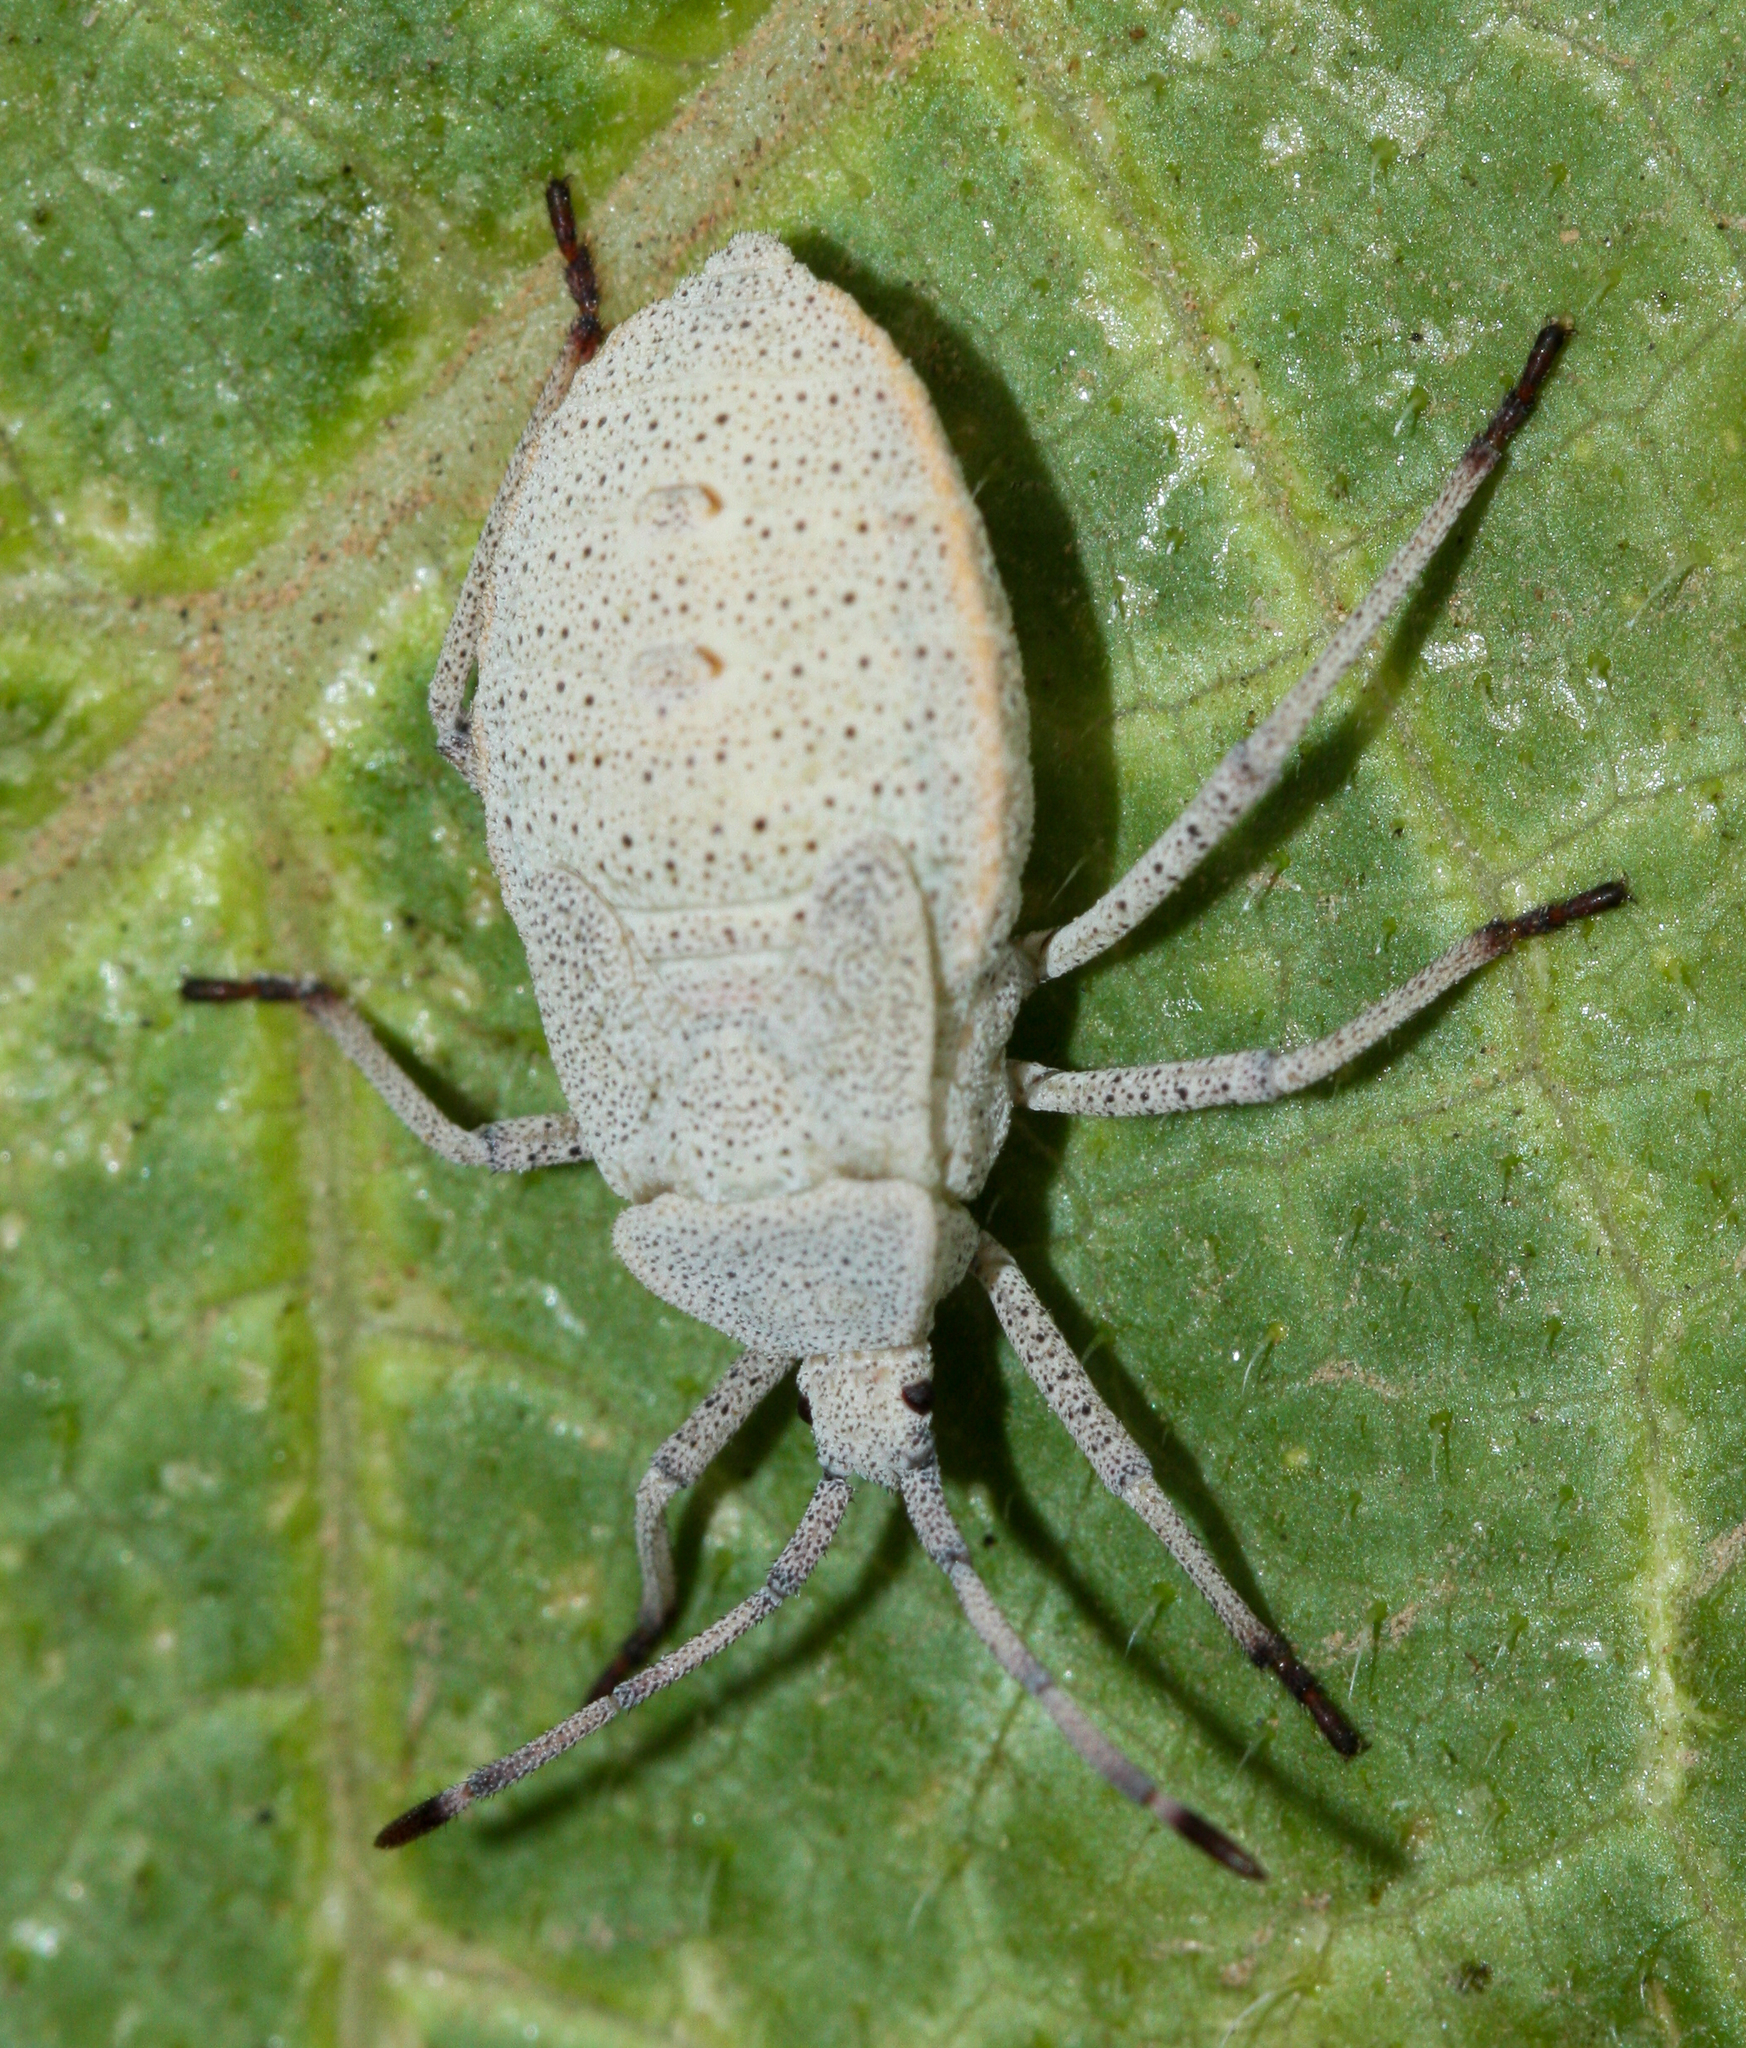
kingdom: Animalia
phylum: Arthropoda
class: Insecta
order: Hemiptera
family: Coreidae
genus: Anasa
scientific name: Anasa tristis
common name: Squash bug
